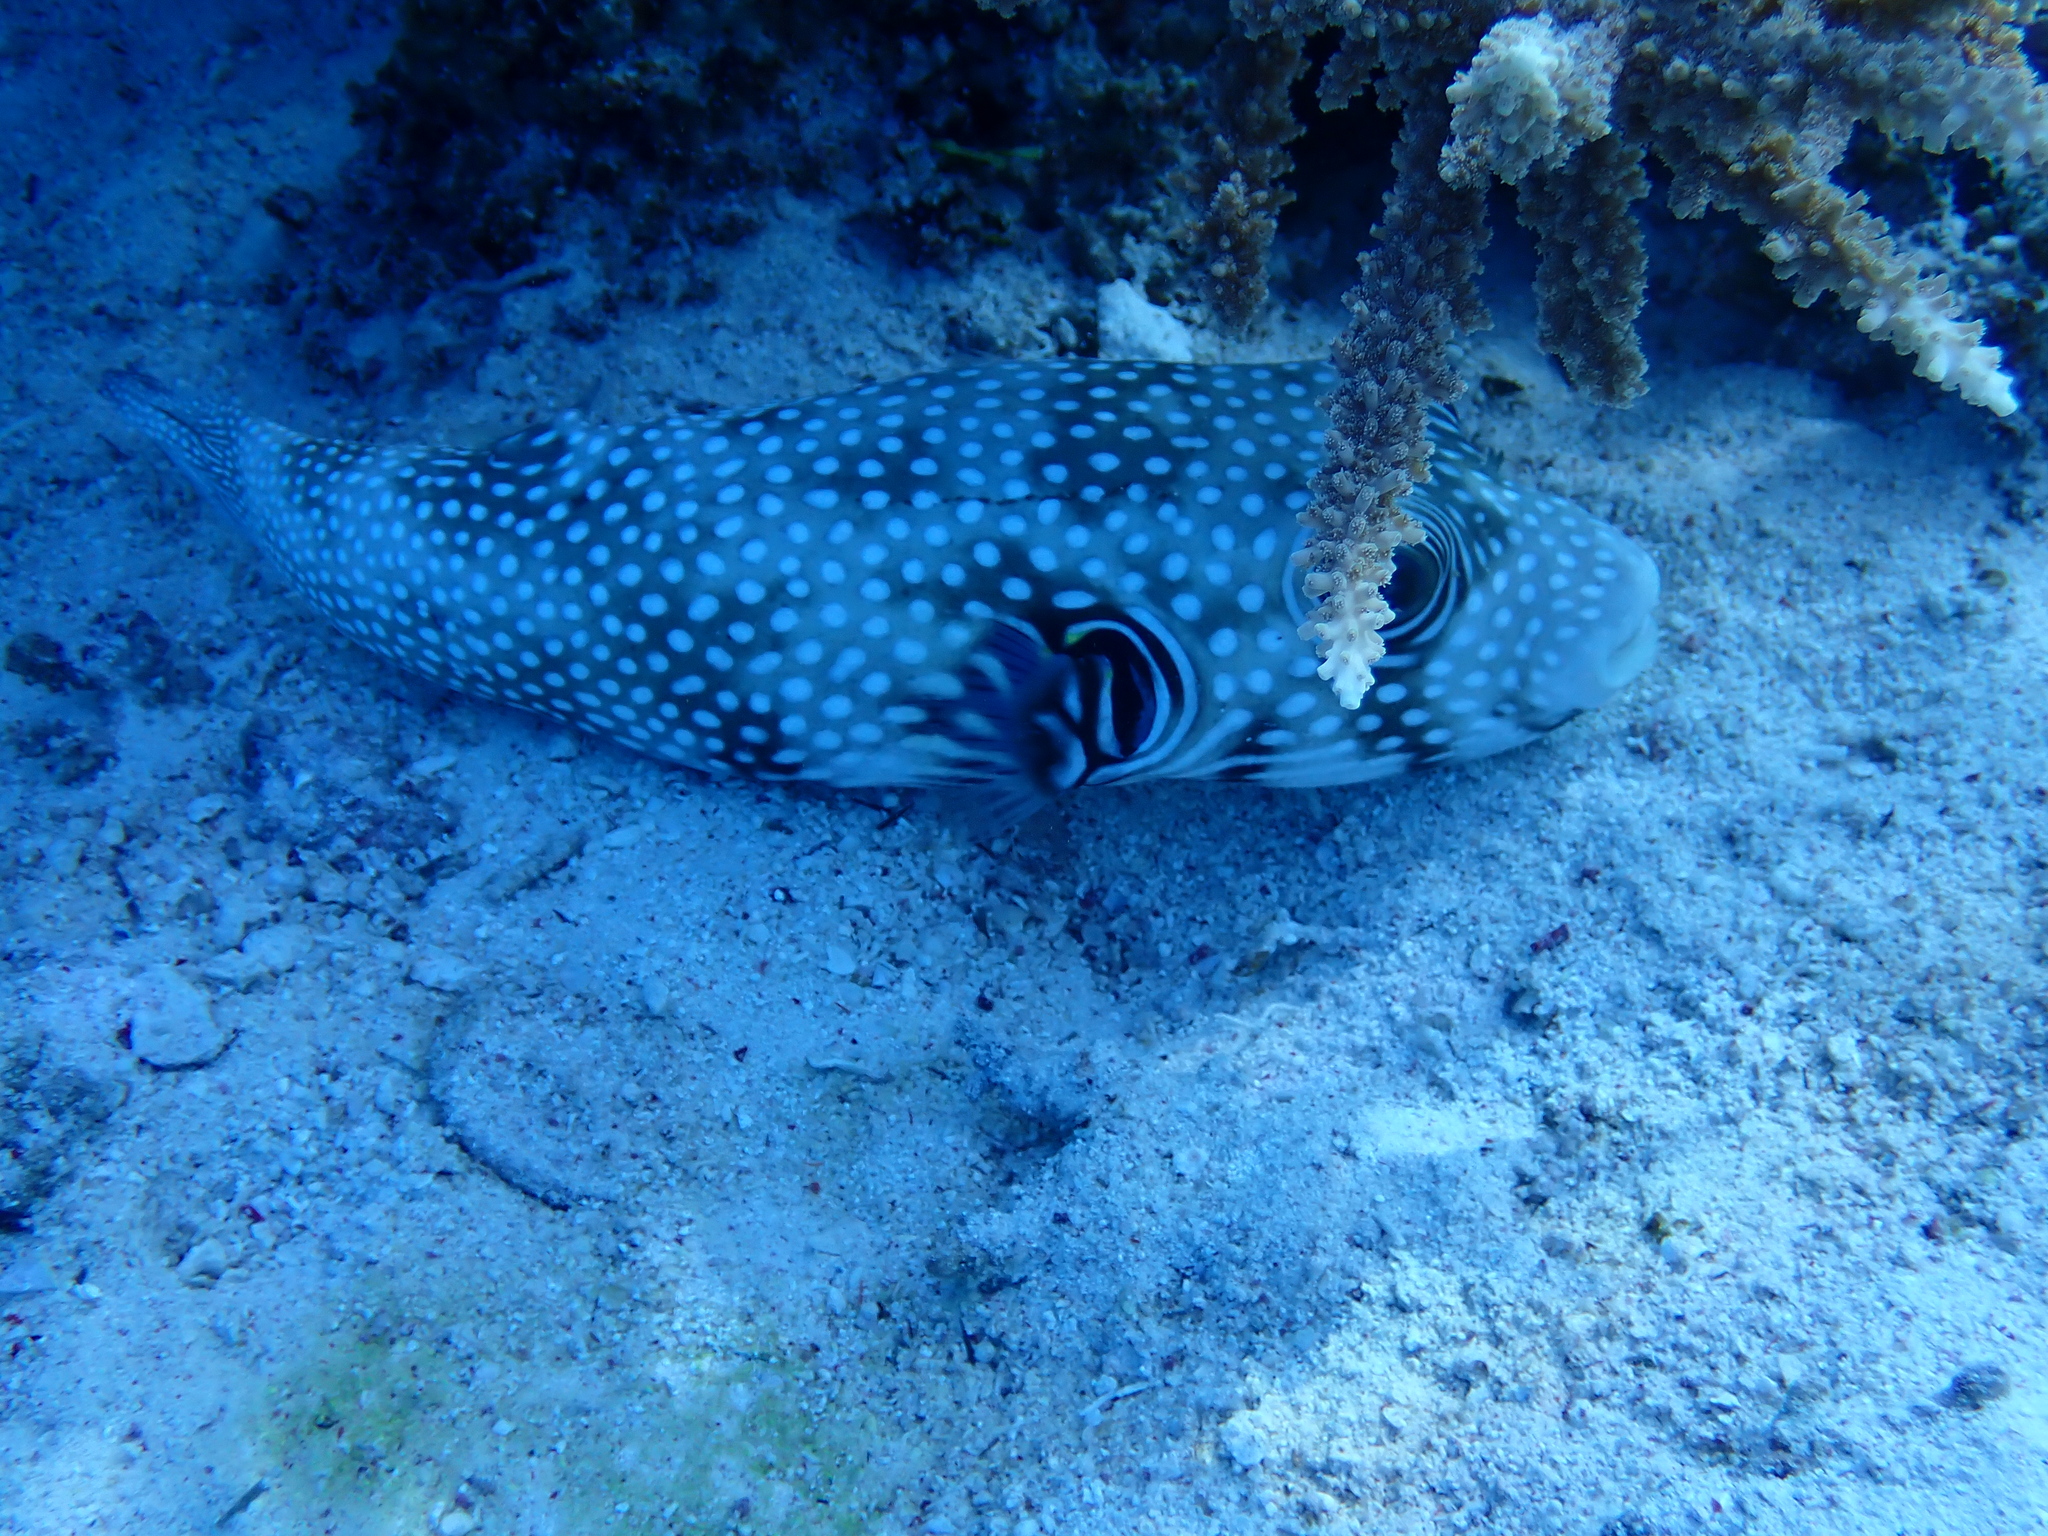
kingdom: Animalia
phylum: Chordata
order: Tetraodontiformes
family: Tetraodontidae
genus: Arothron
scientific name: Arothron hispidus
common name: Stripebelly puffer
